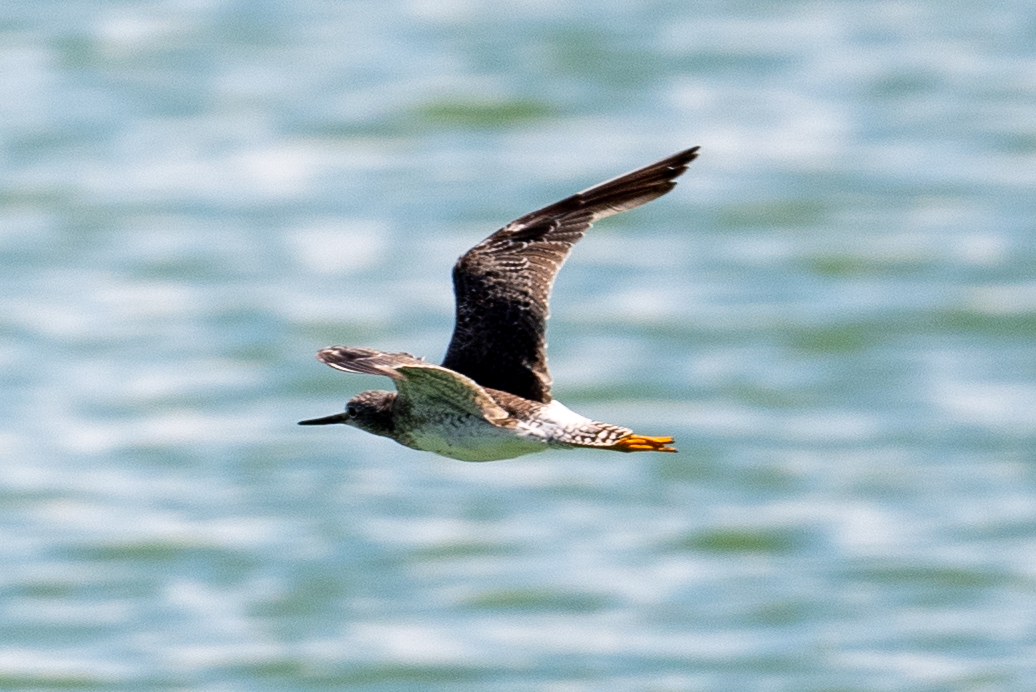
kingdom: Animalia
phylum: Chordata
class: Aves
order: Charadriiformes
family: Scolopacidae
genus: Tringa
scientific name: Tringa melanoleuca
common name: Greater yellowlegs
